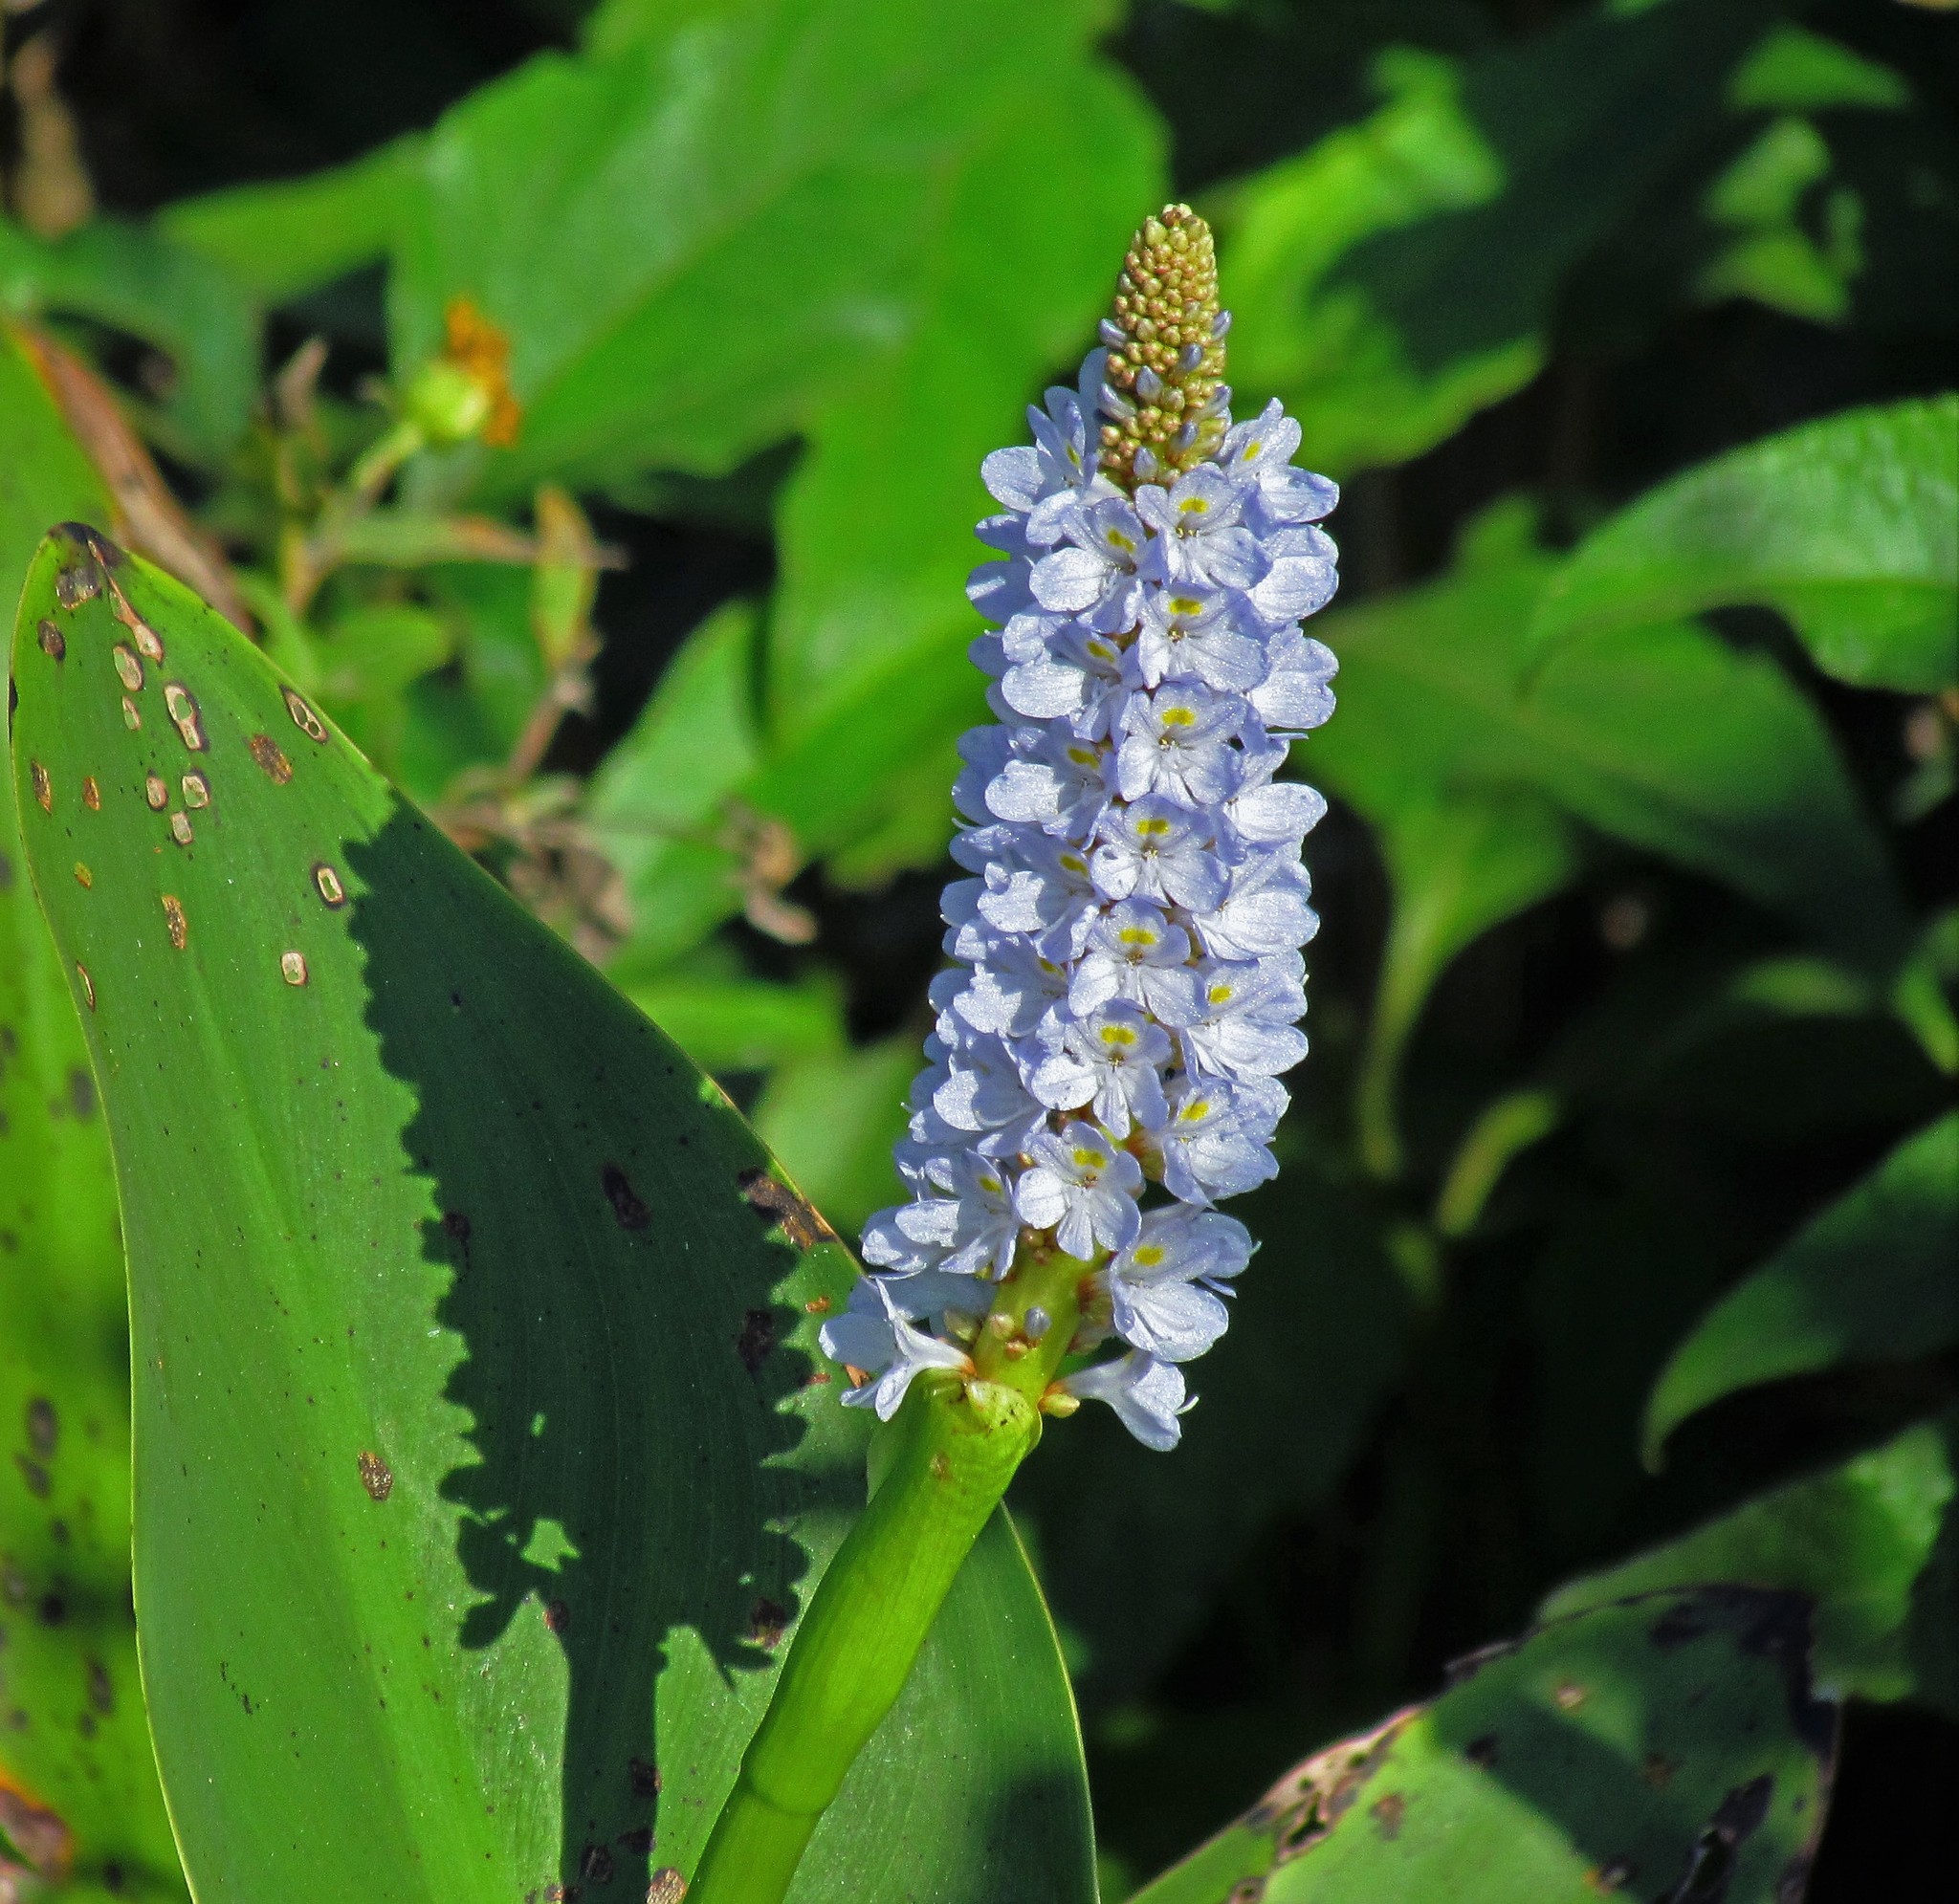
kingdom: Plantae
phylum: Tracheophyta
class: Liliopsida
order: Commelinales
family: Pontederiaceae
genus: Pontederia
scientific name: Pontederia cordata
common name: Pickerelweed
